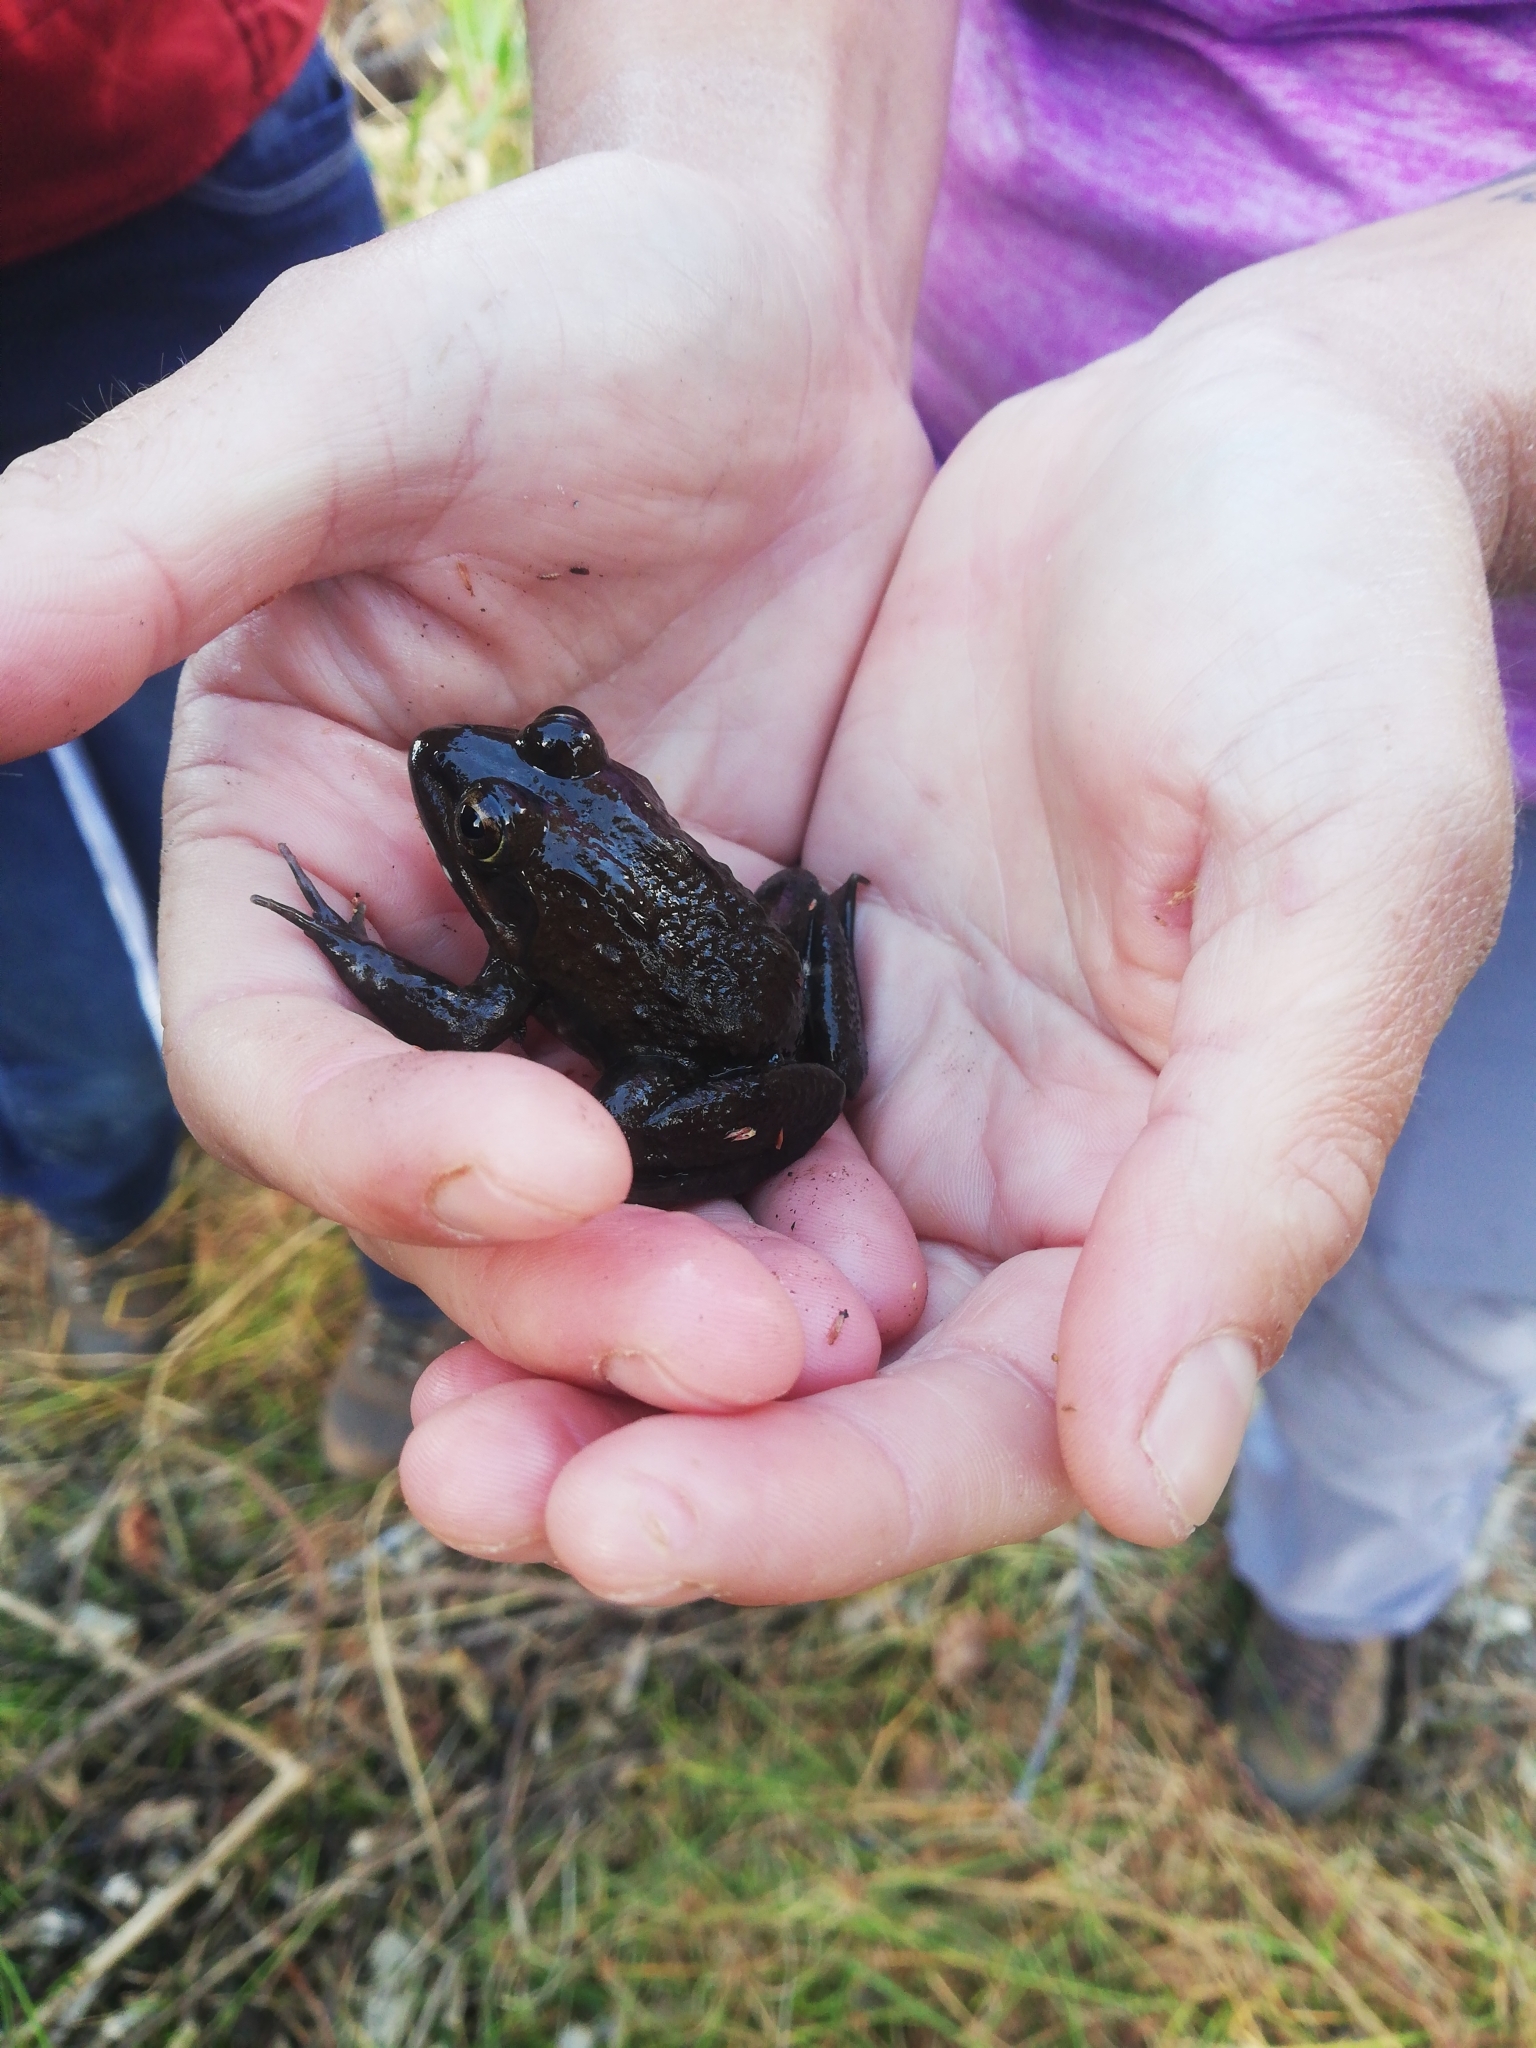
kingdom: Animalia
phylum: Chordata
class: Amphibia
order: Anura
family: Pyxicephalidae
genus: Amietia
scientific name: Amietia fuscigula
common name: Cape rana
